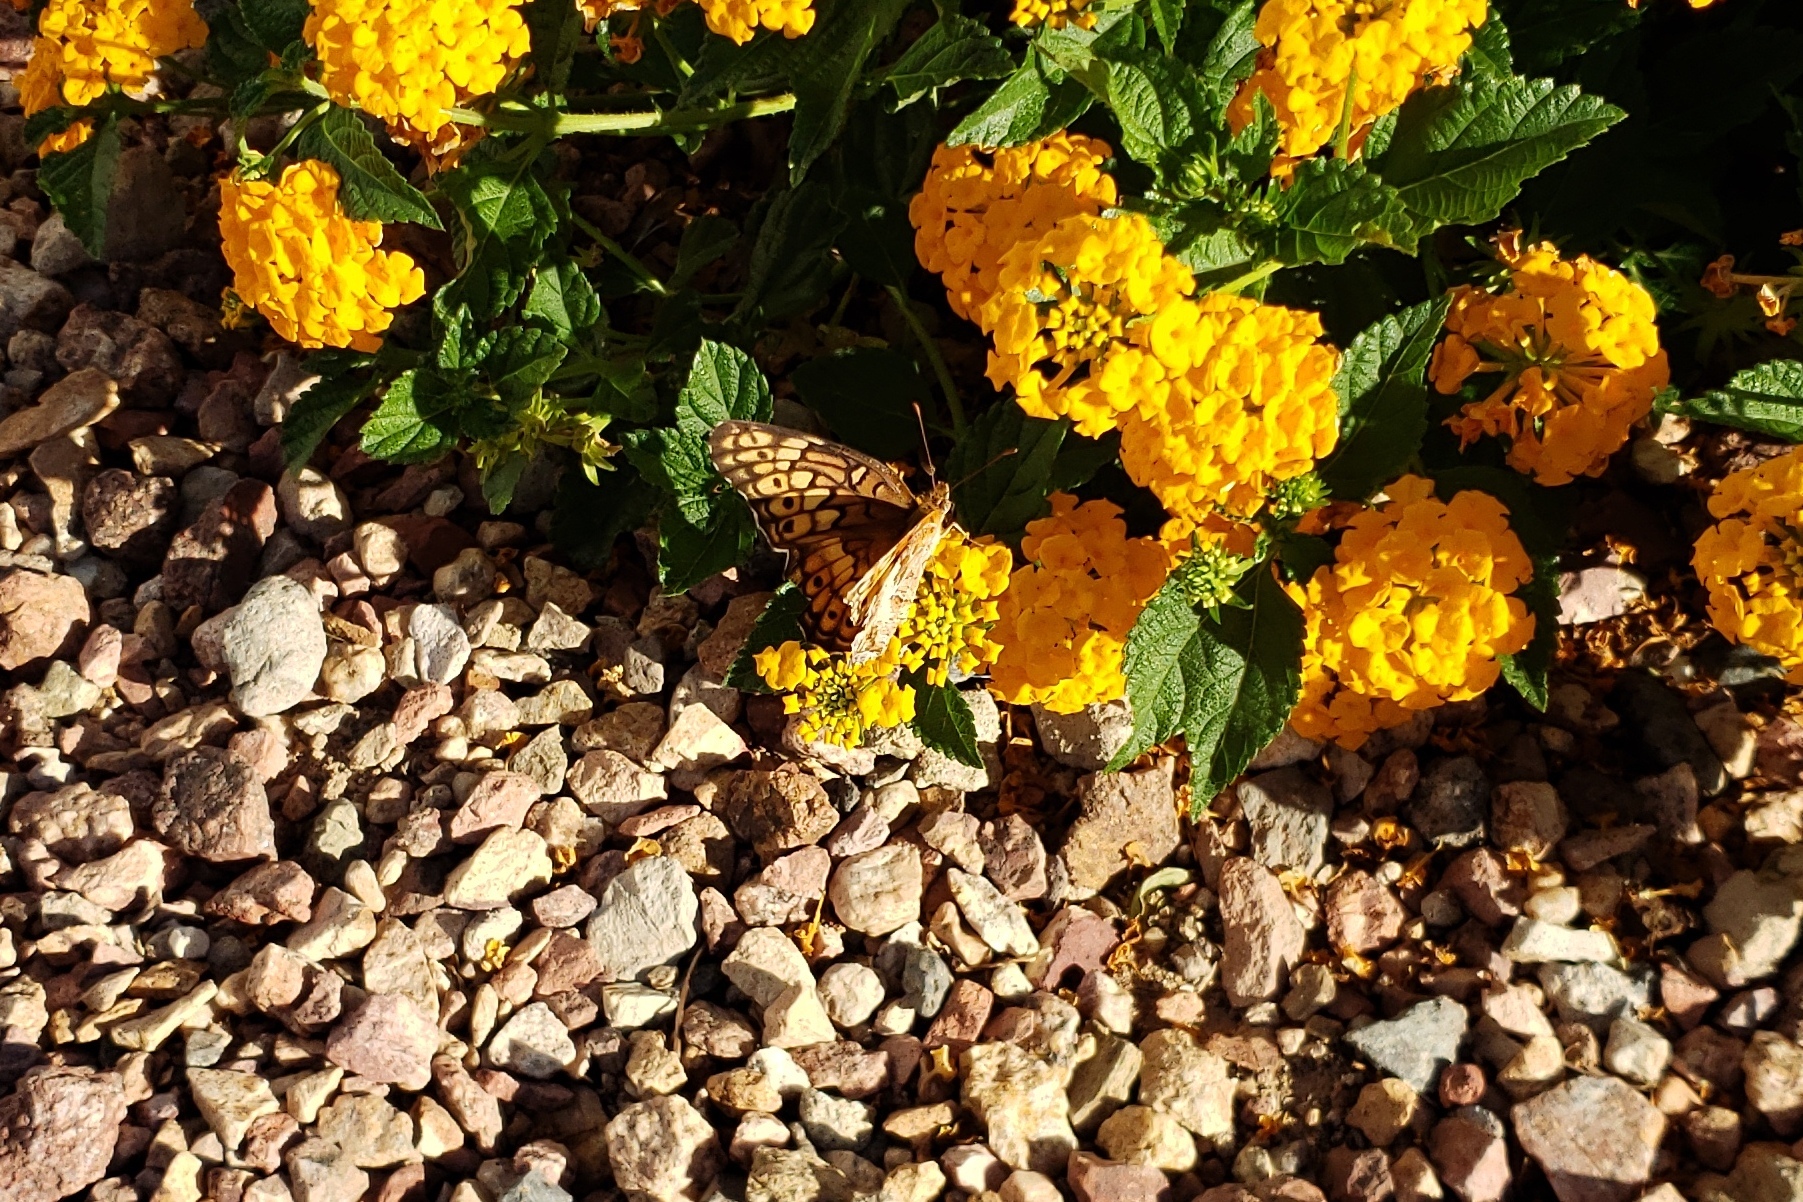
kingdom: Animalia
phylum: Arthropoda
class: Insecta
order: Lepidoptera
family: Nymphalidae
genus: Euptoieta
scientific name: Euptoieta claudia
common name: Variegated fritillary
